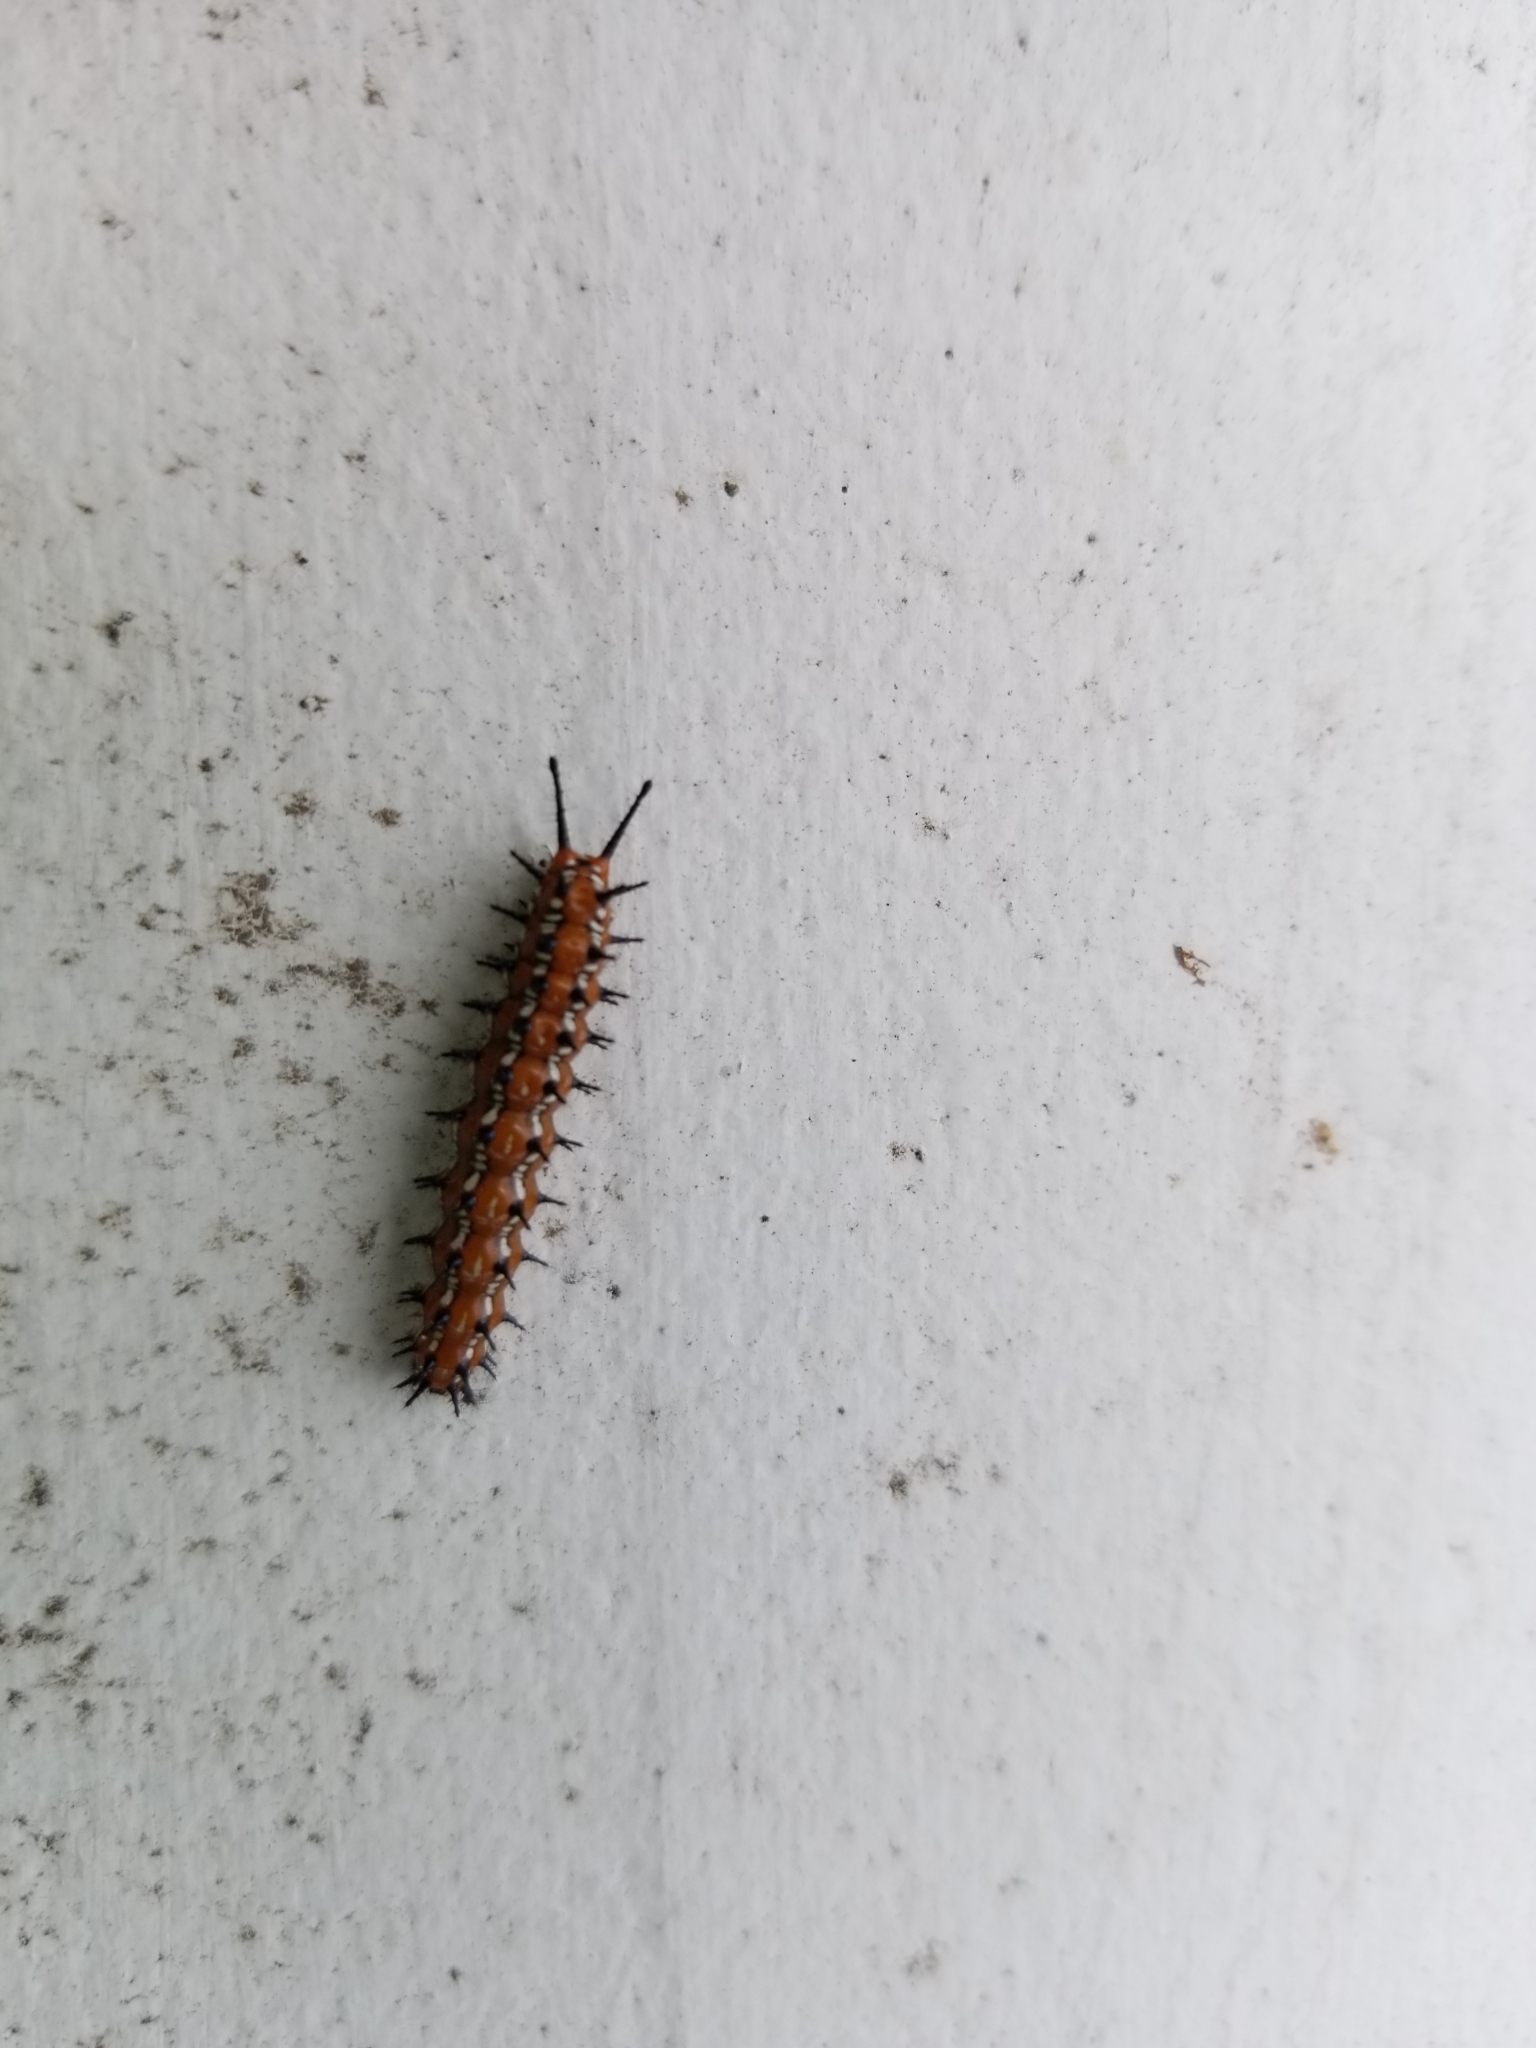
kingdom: Animalia
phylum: Arthropoda
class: Insecta
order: Lepidoptera
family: Nymphalidae
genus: Euptoieta
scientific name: Euptoieta claudia
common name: Variegated fritillary
